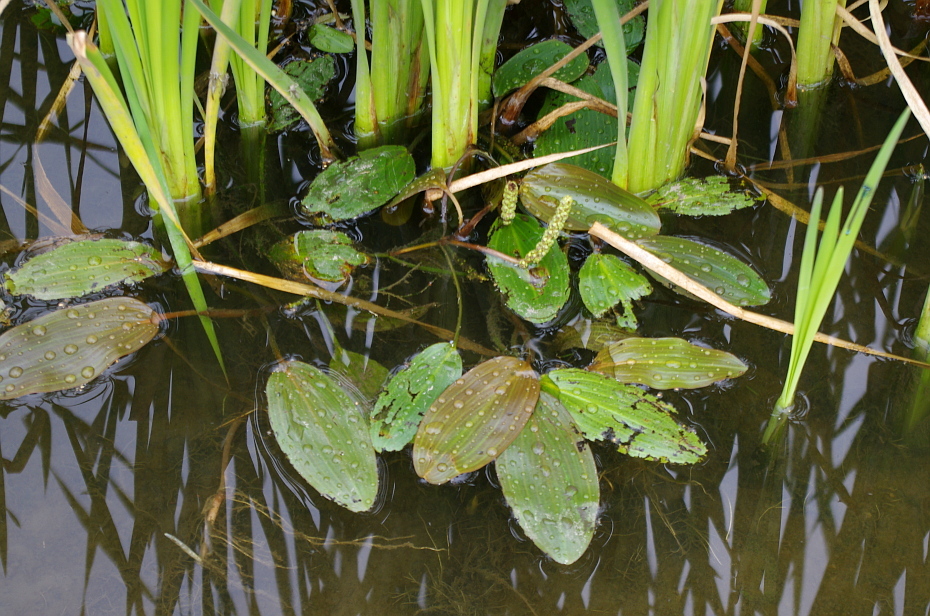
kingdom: Plantae
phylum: Tracheophyta
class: Liliopsida
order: Alismatales
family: Potamogetonaceae
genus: Potamogeton
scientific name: Potamogeton natans
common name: Broad-leaved pondweed
